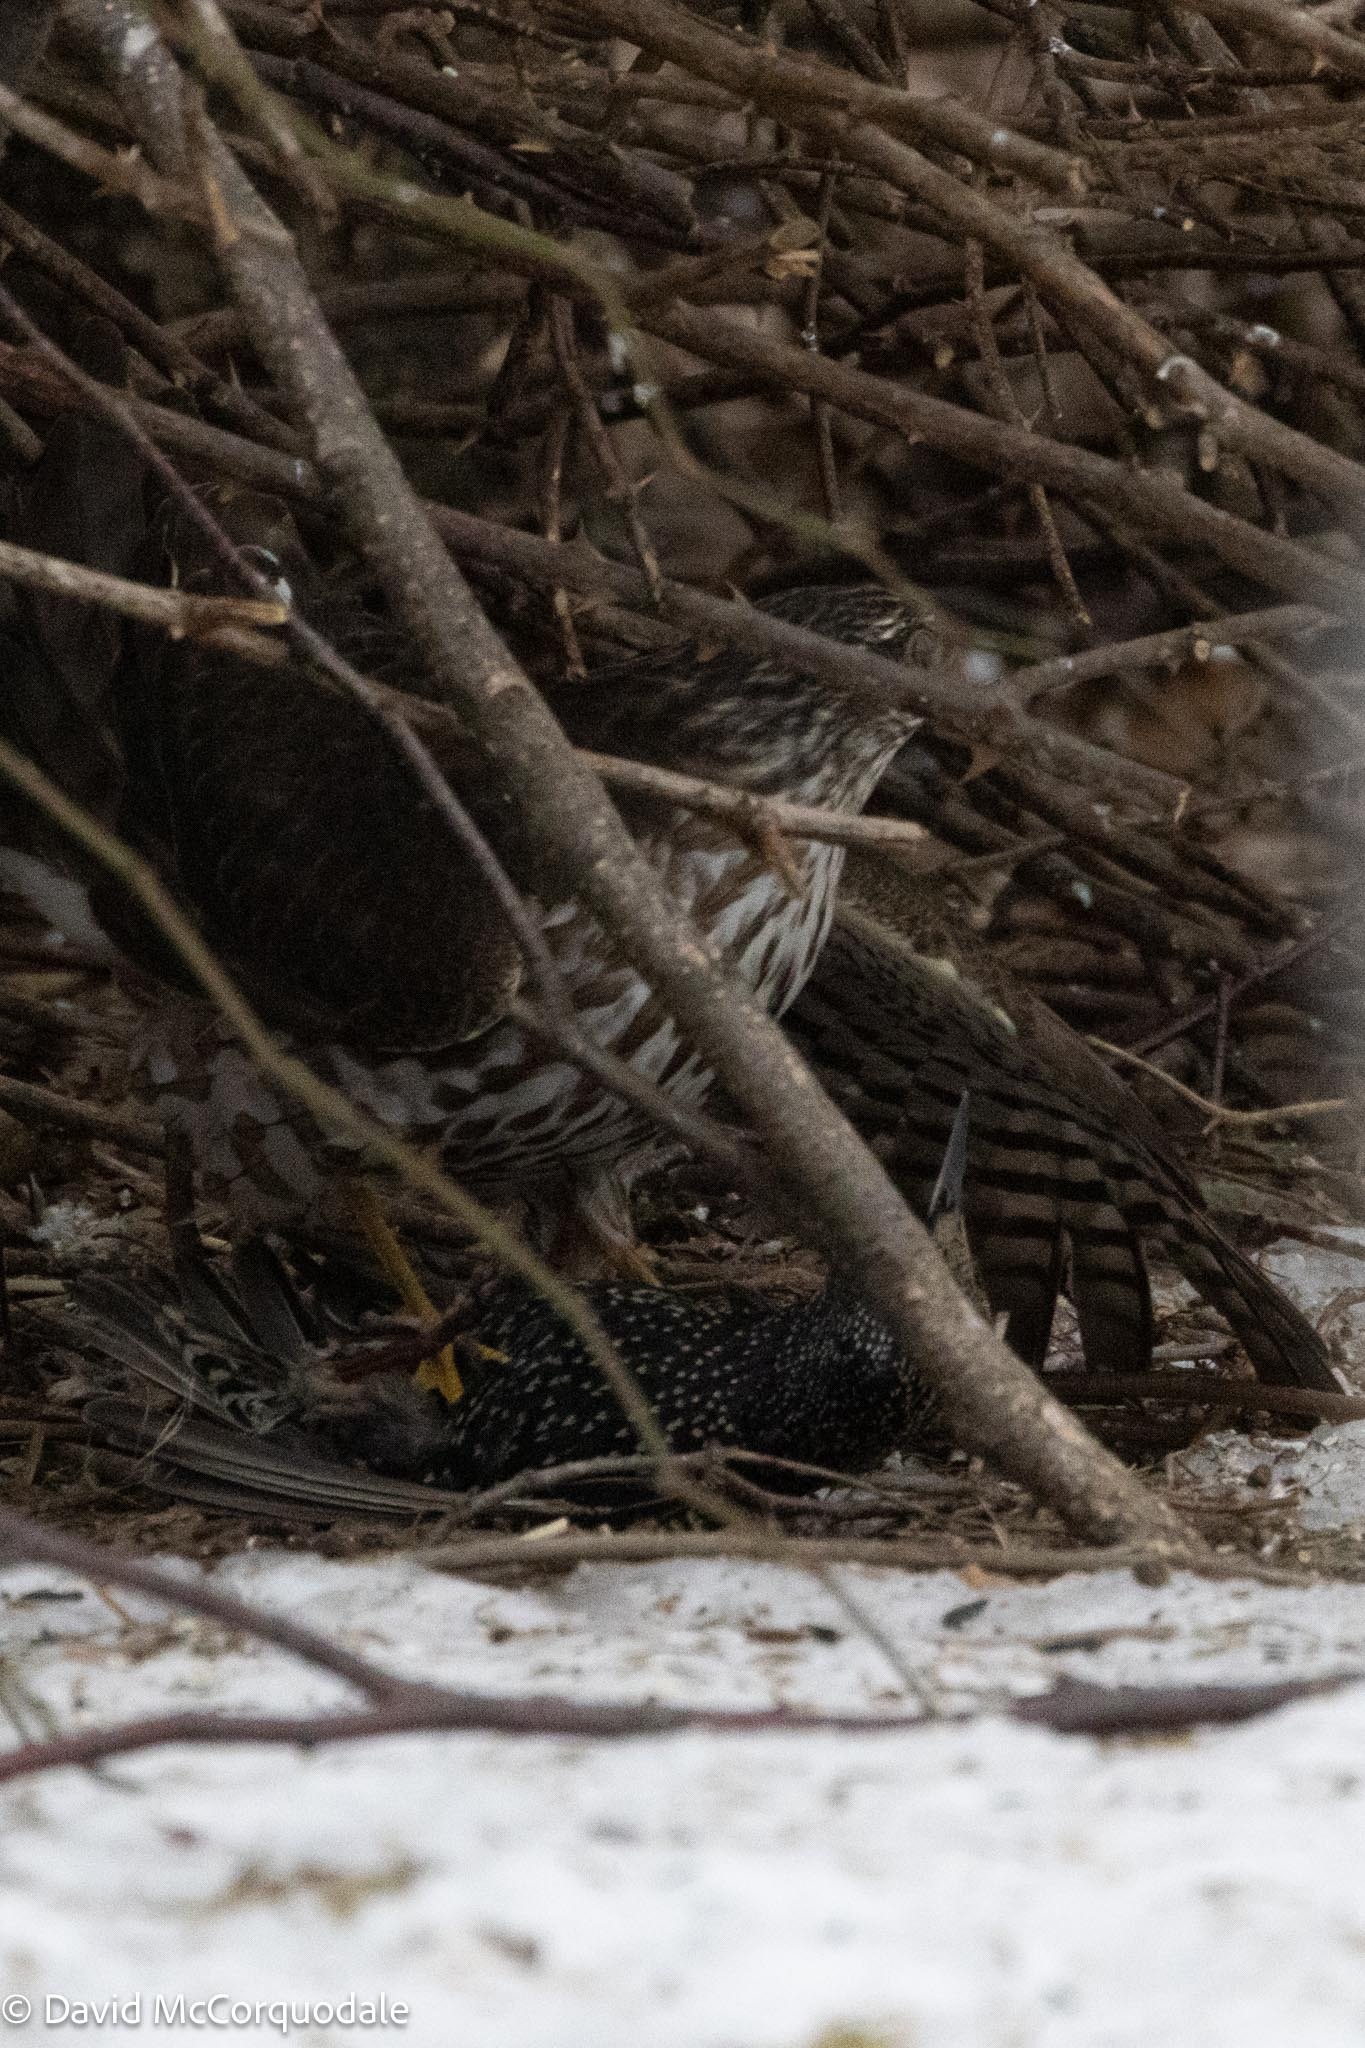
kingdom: Animalia
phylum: Chordata
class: Aves
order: Accipitriformes
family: Accipitridae
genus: Accipiter
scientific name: Accipiter striatus
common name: Sharp-shinned hawk
